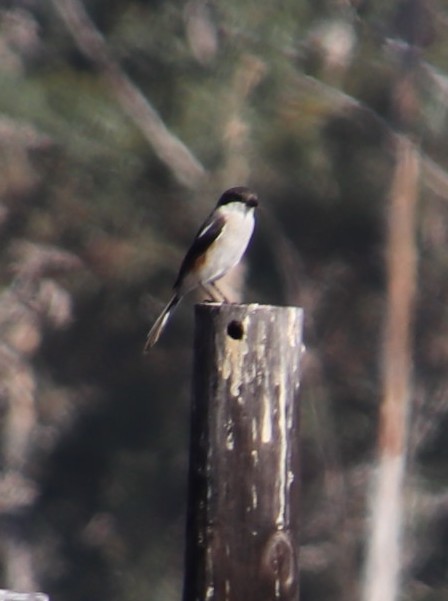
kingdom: Animalia
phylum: Chordata
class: Aves
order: Passeriformes
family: Laniidae
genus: Lanius
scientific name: Lanius collaris
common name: Southern fiscal
